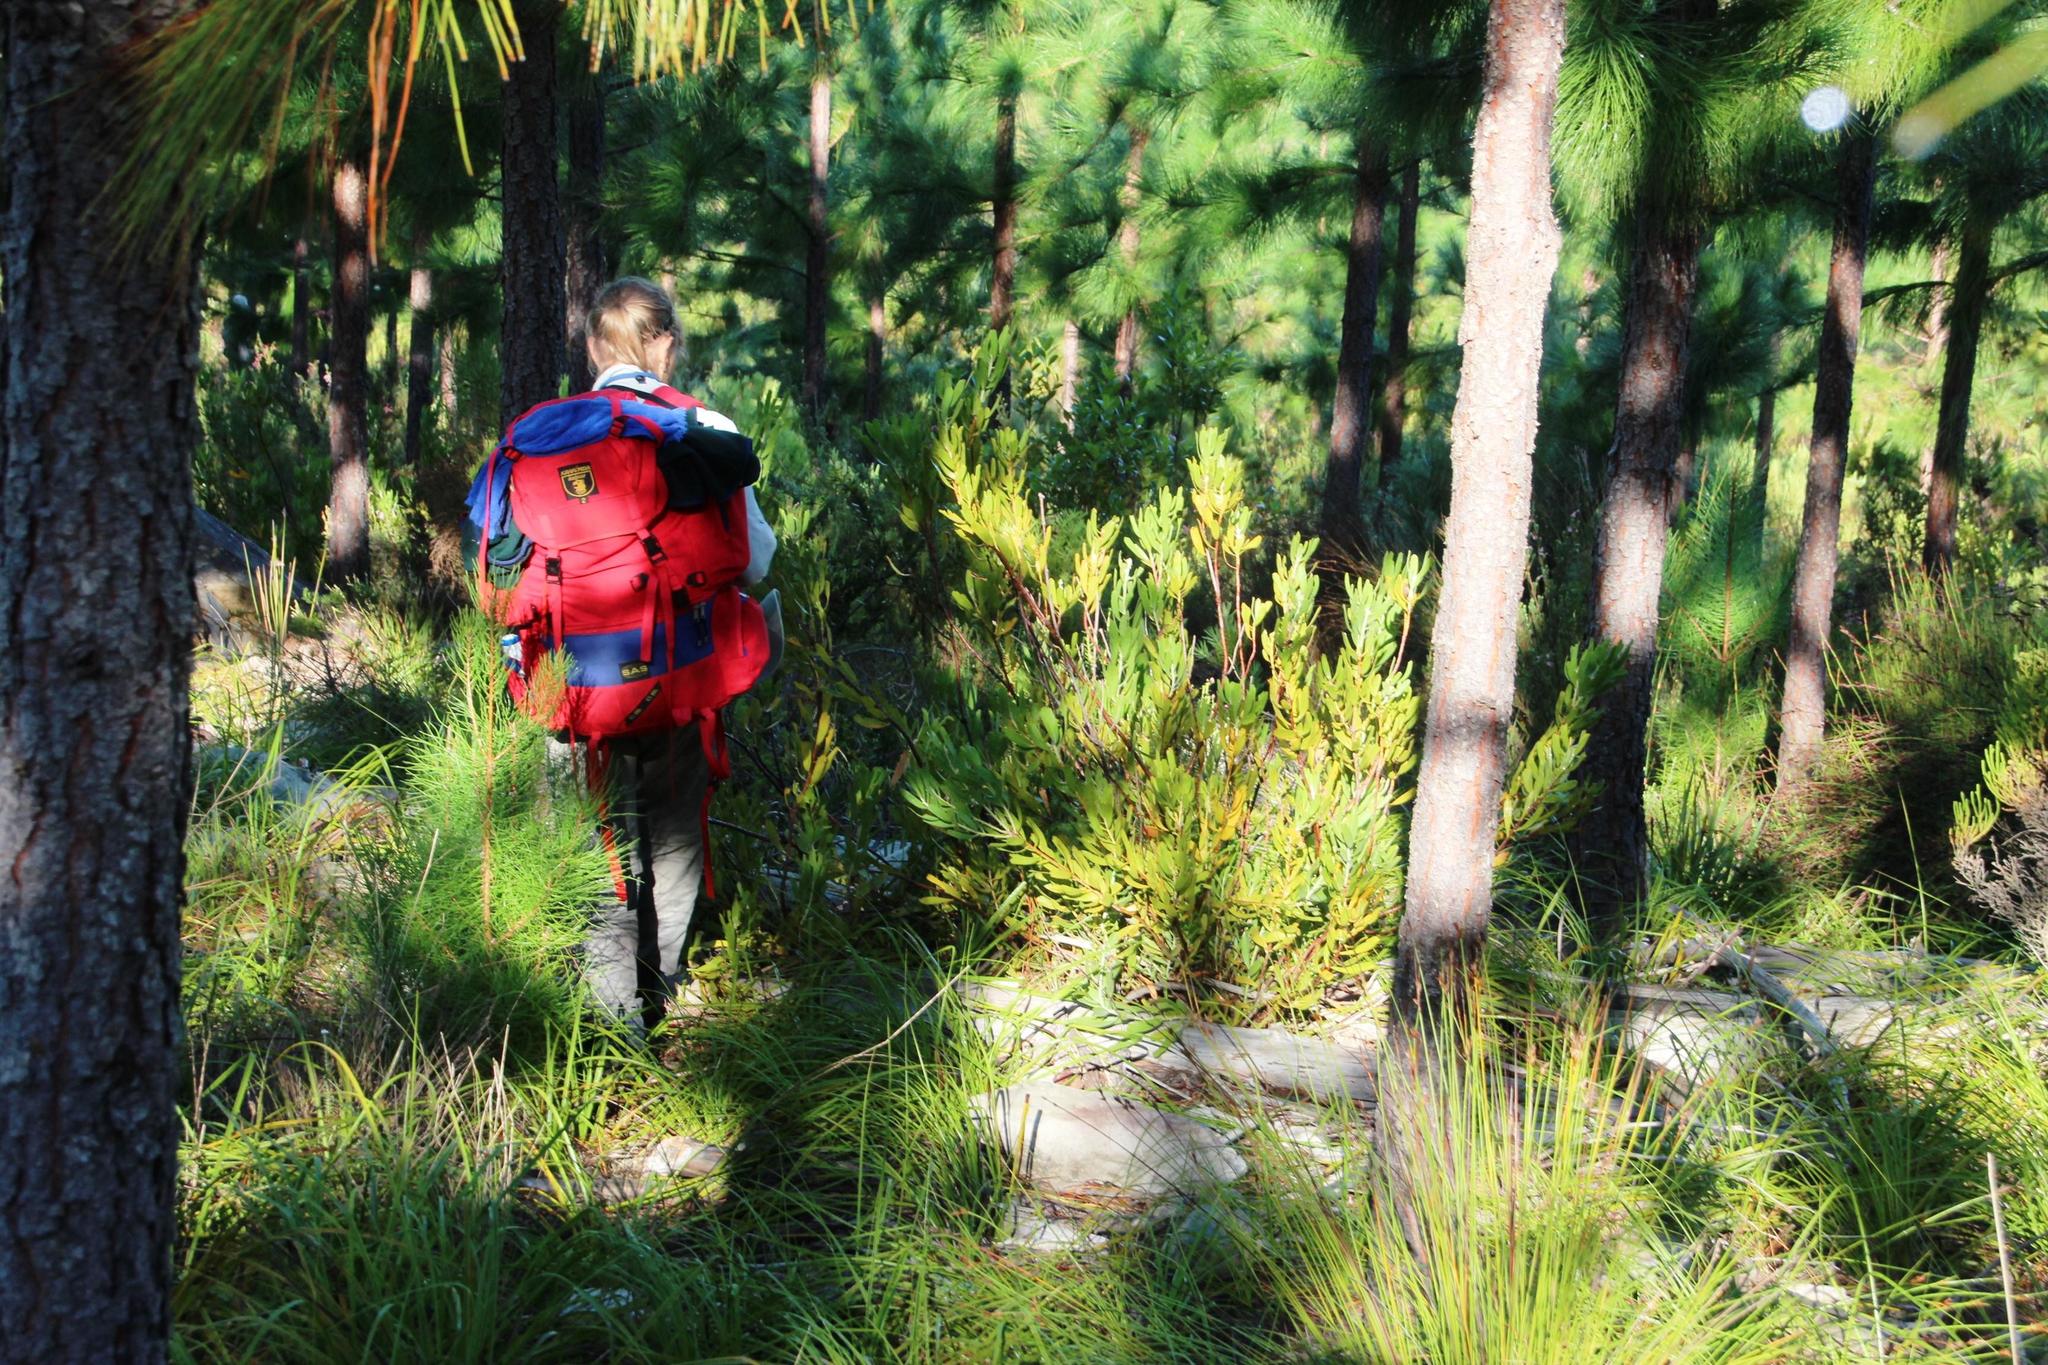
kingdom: Plantae
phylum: Tracheophyta
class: Magnoliopsida
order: Proteales
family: Proteaceae
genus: Leucospermum
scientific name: Leucospermum cuneiforme
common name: Common pincushion
